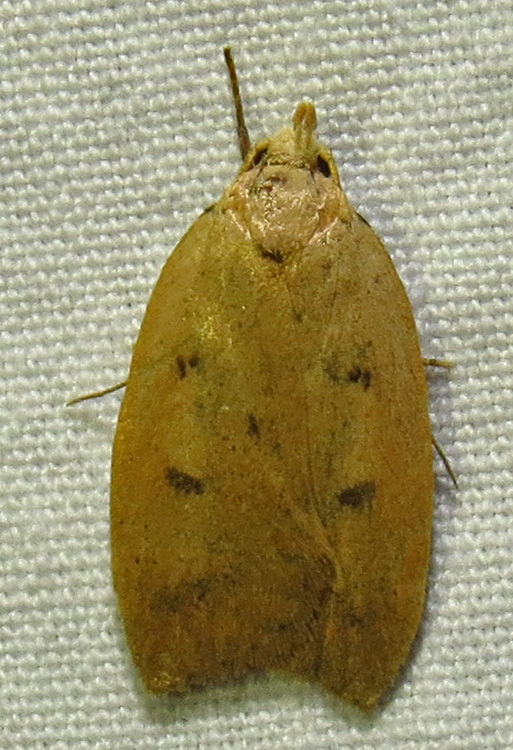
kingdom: Animalia
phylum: Arthropoda
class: Insecta
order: Lepidoptera
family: Peleopodidae
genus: Machimia
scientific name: Machimia tentoriferella
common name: Gold-striped leaftier moth
